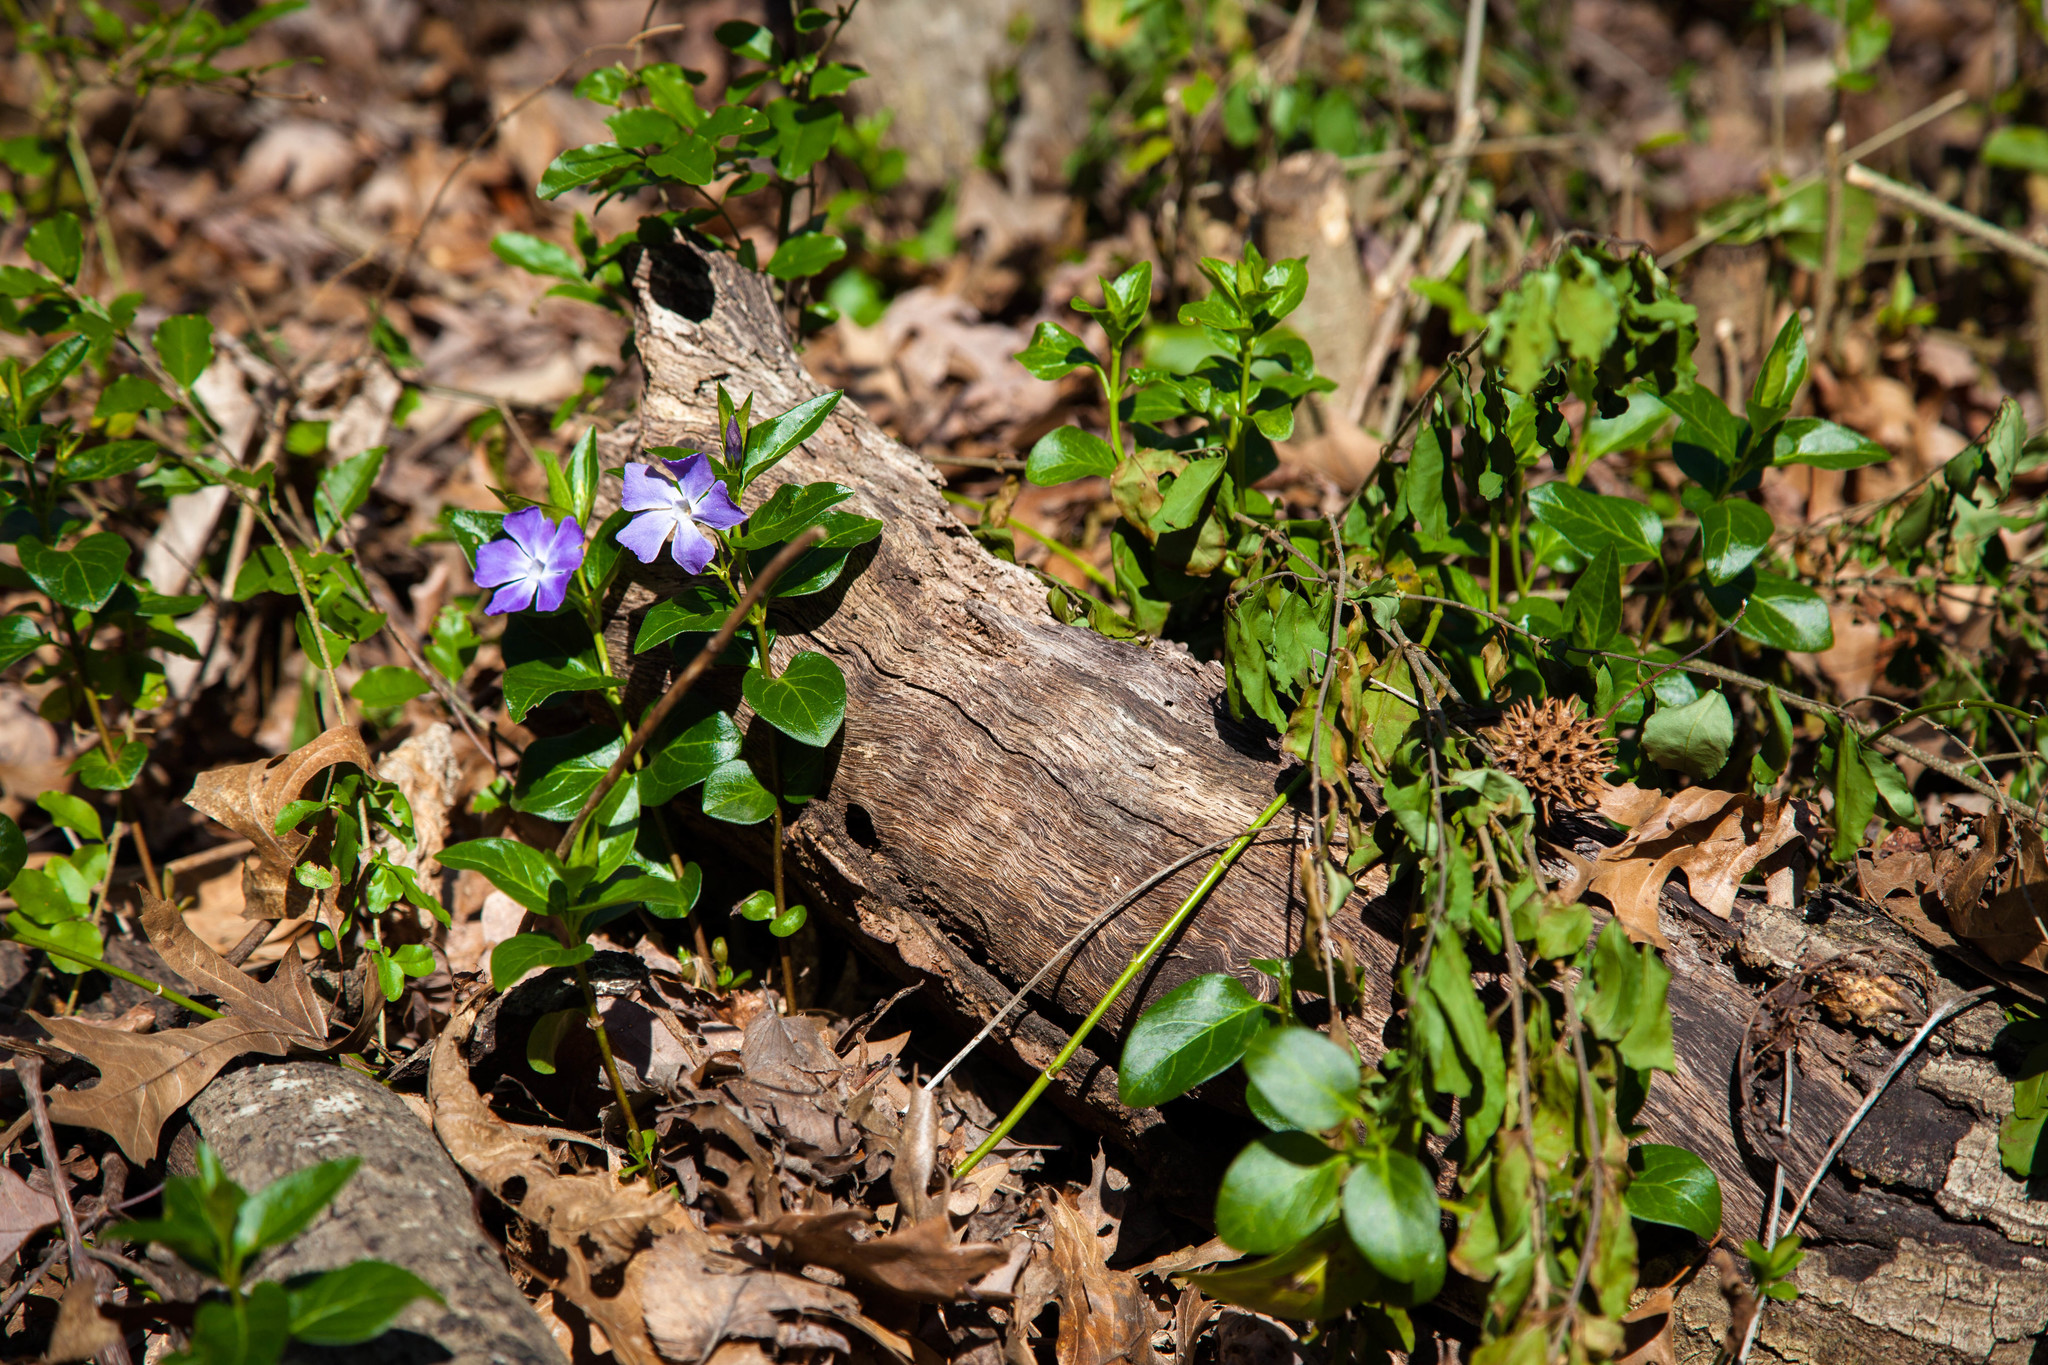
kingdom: Plantae
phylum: Tracheophyta
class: Magnoliopsida
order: Gentianales
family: Apocynaceae
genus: Vinca
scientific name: Vinca major
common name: Greater periwinkle
